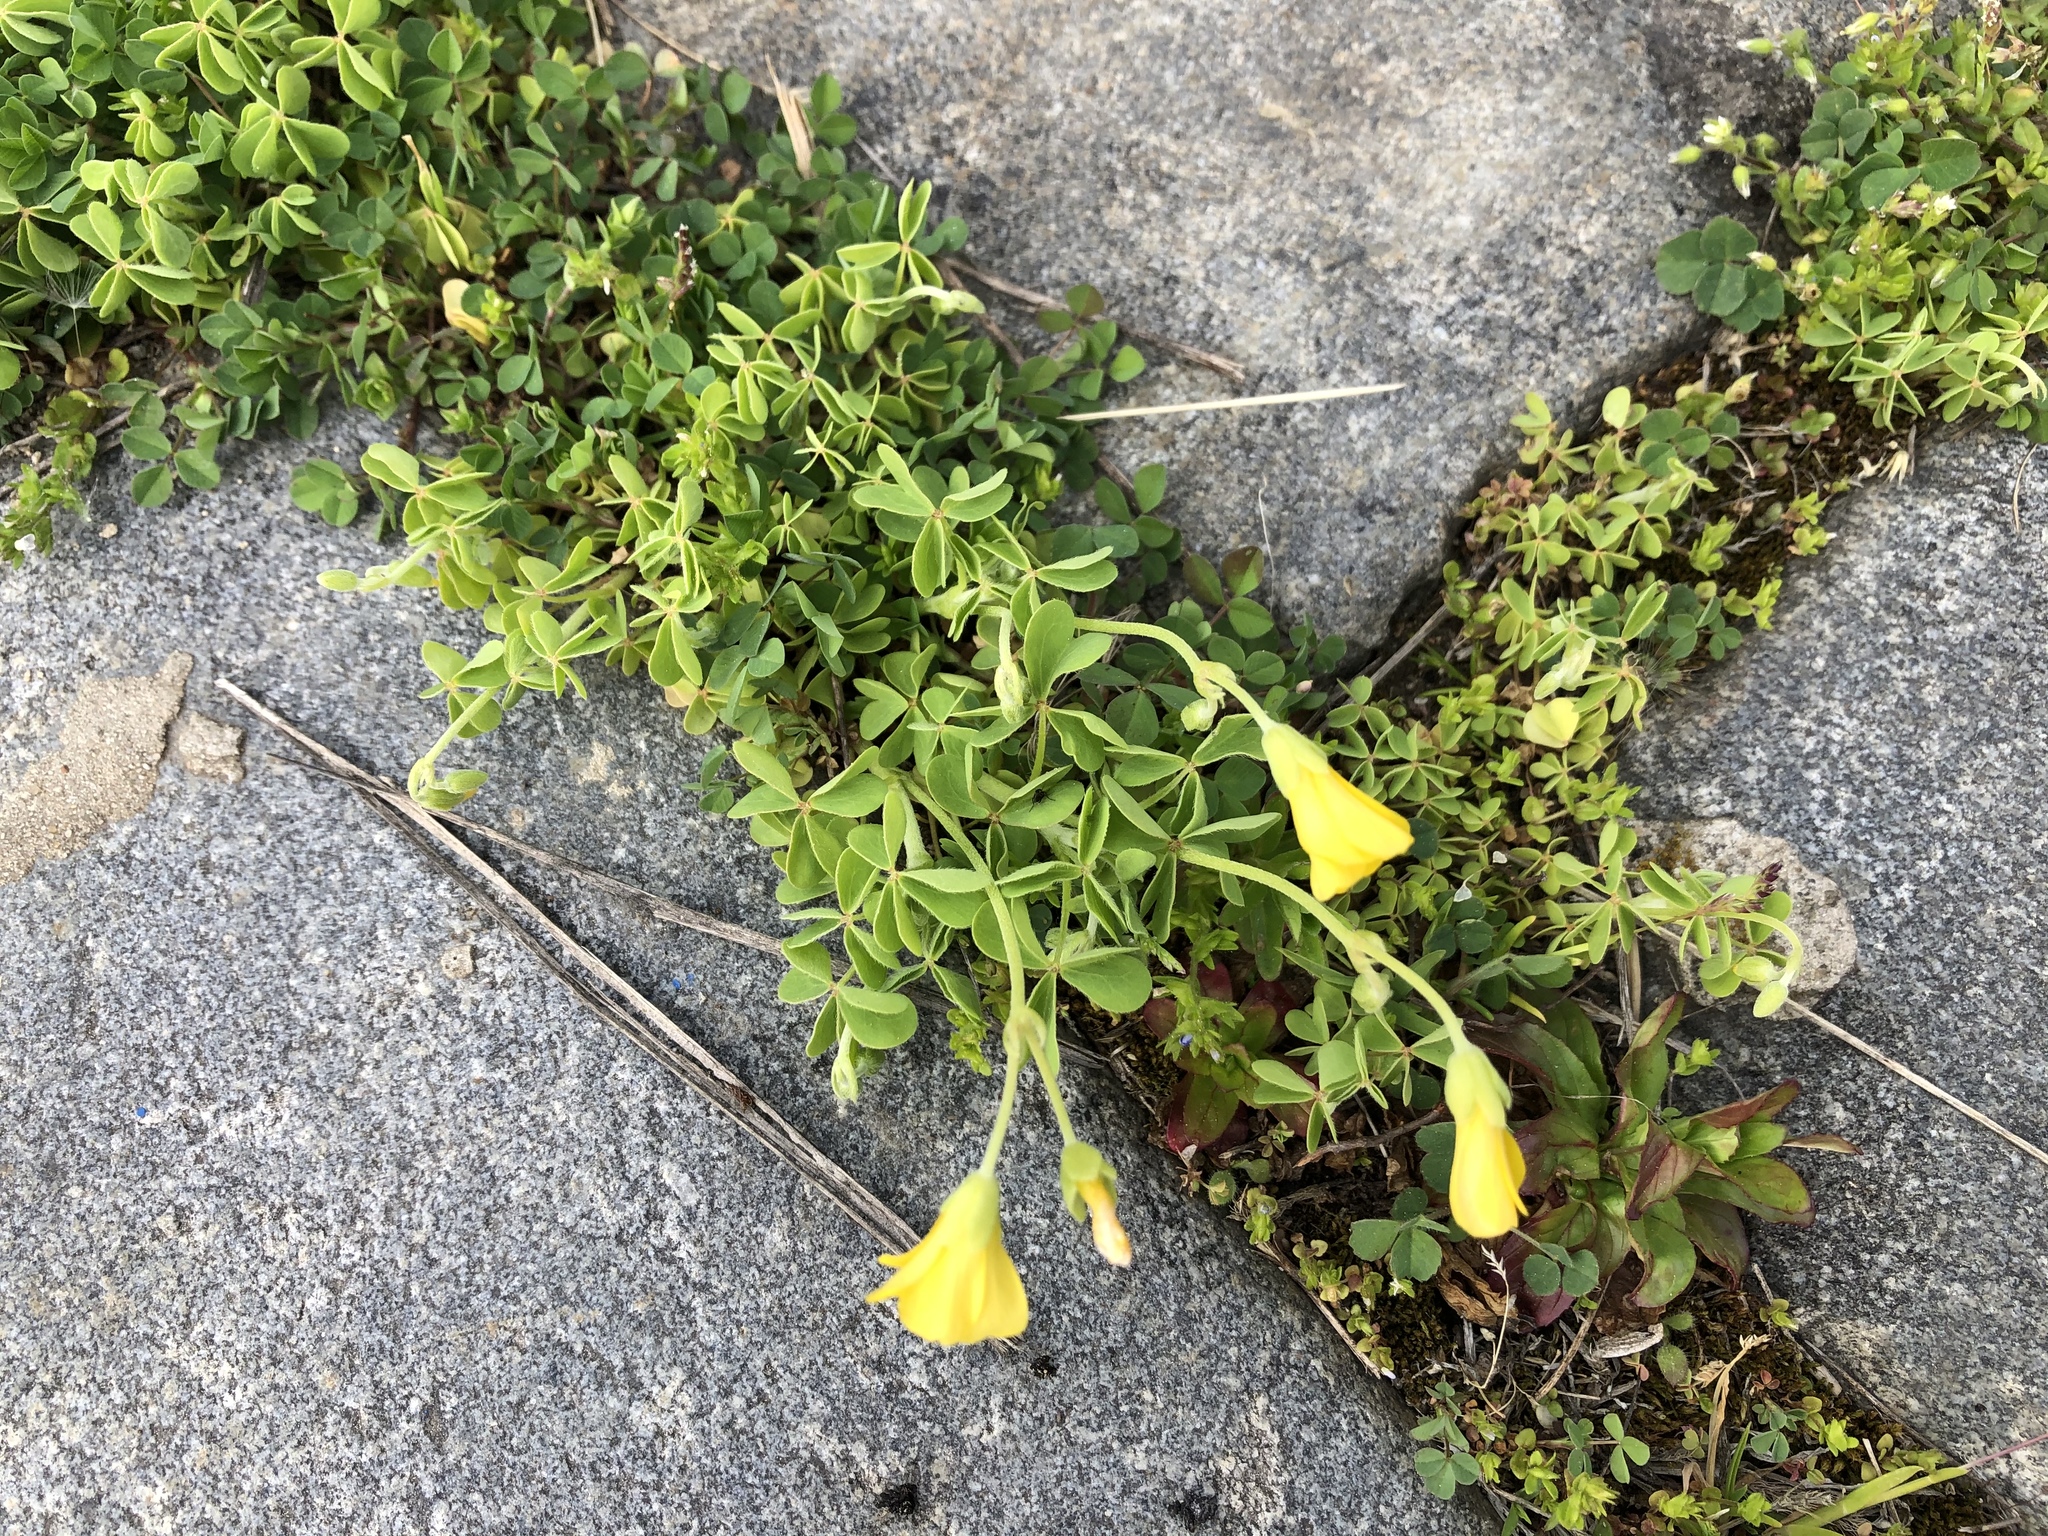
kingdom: Plantae
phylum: Tracheophyta
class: Magnoliopsida
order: Oxalidales
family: Oxalidaceae
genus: Oxalis
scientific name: Oxalis dillenii
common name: Sussex yellow-sorrel
